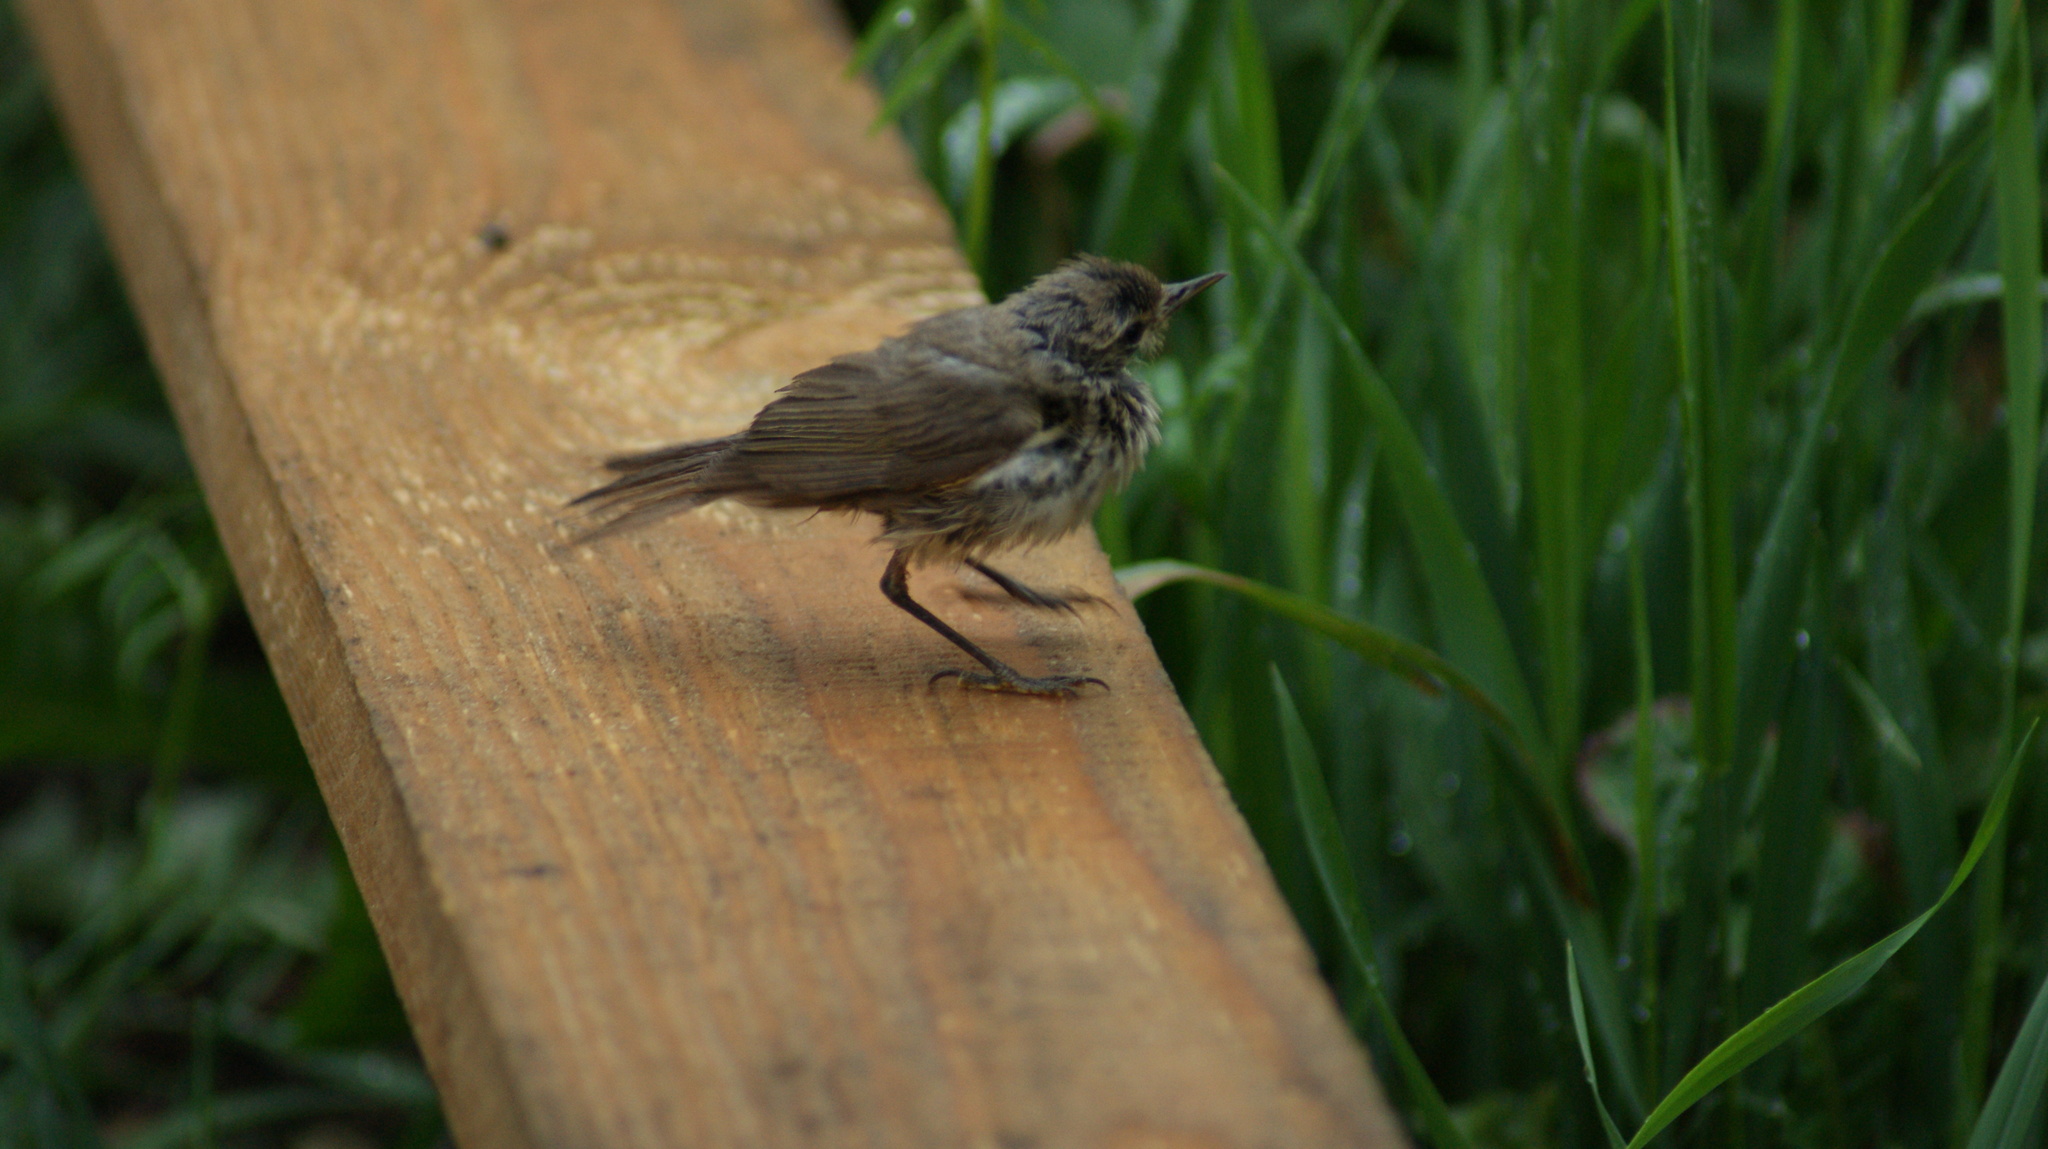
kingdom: Animalia
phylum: Chordata
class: Aves
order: Passeriformes
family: Phylloscopidae
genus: Phylloscopus
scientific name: Phylloscopus collybita
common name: Common chiffchaff
